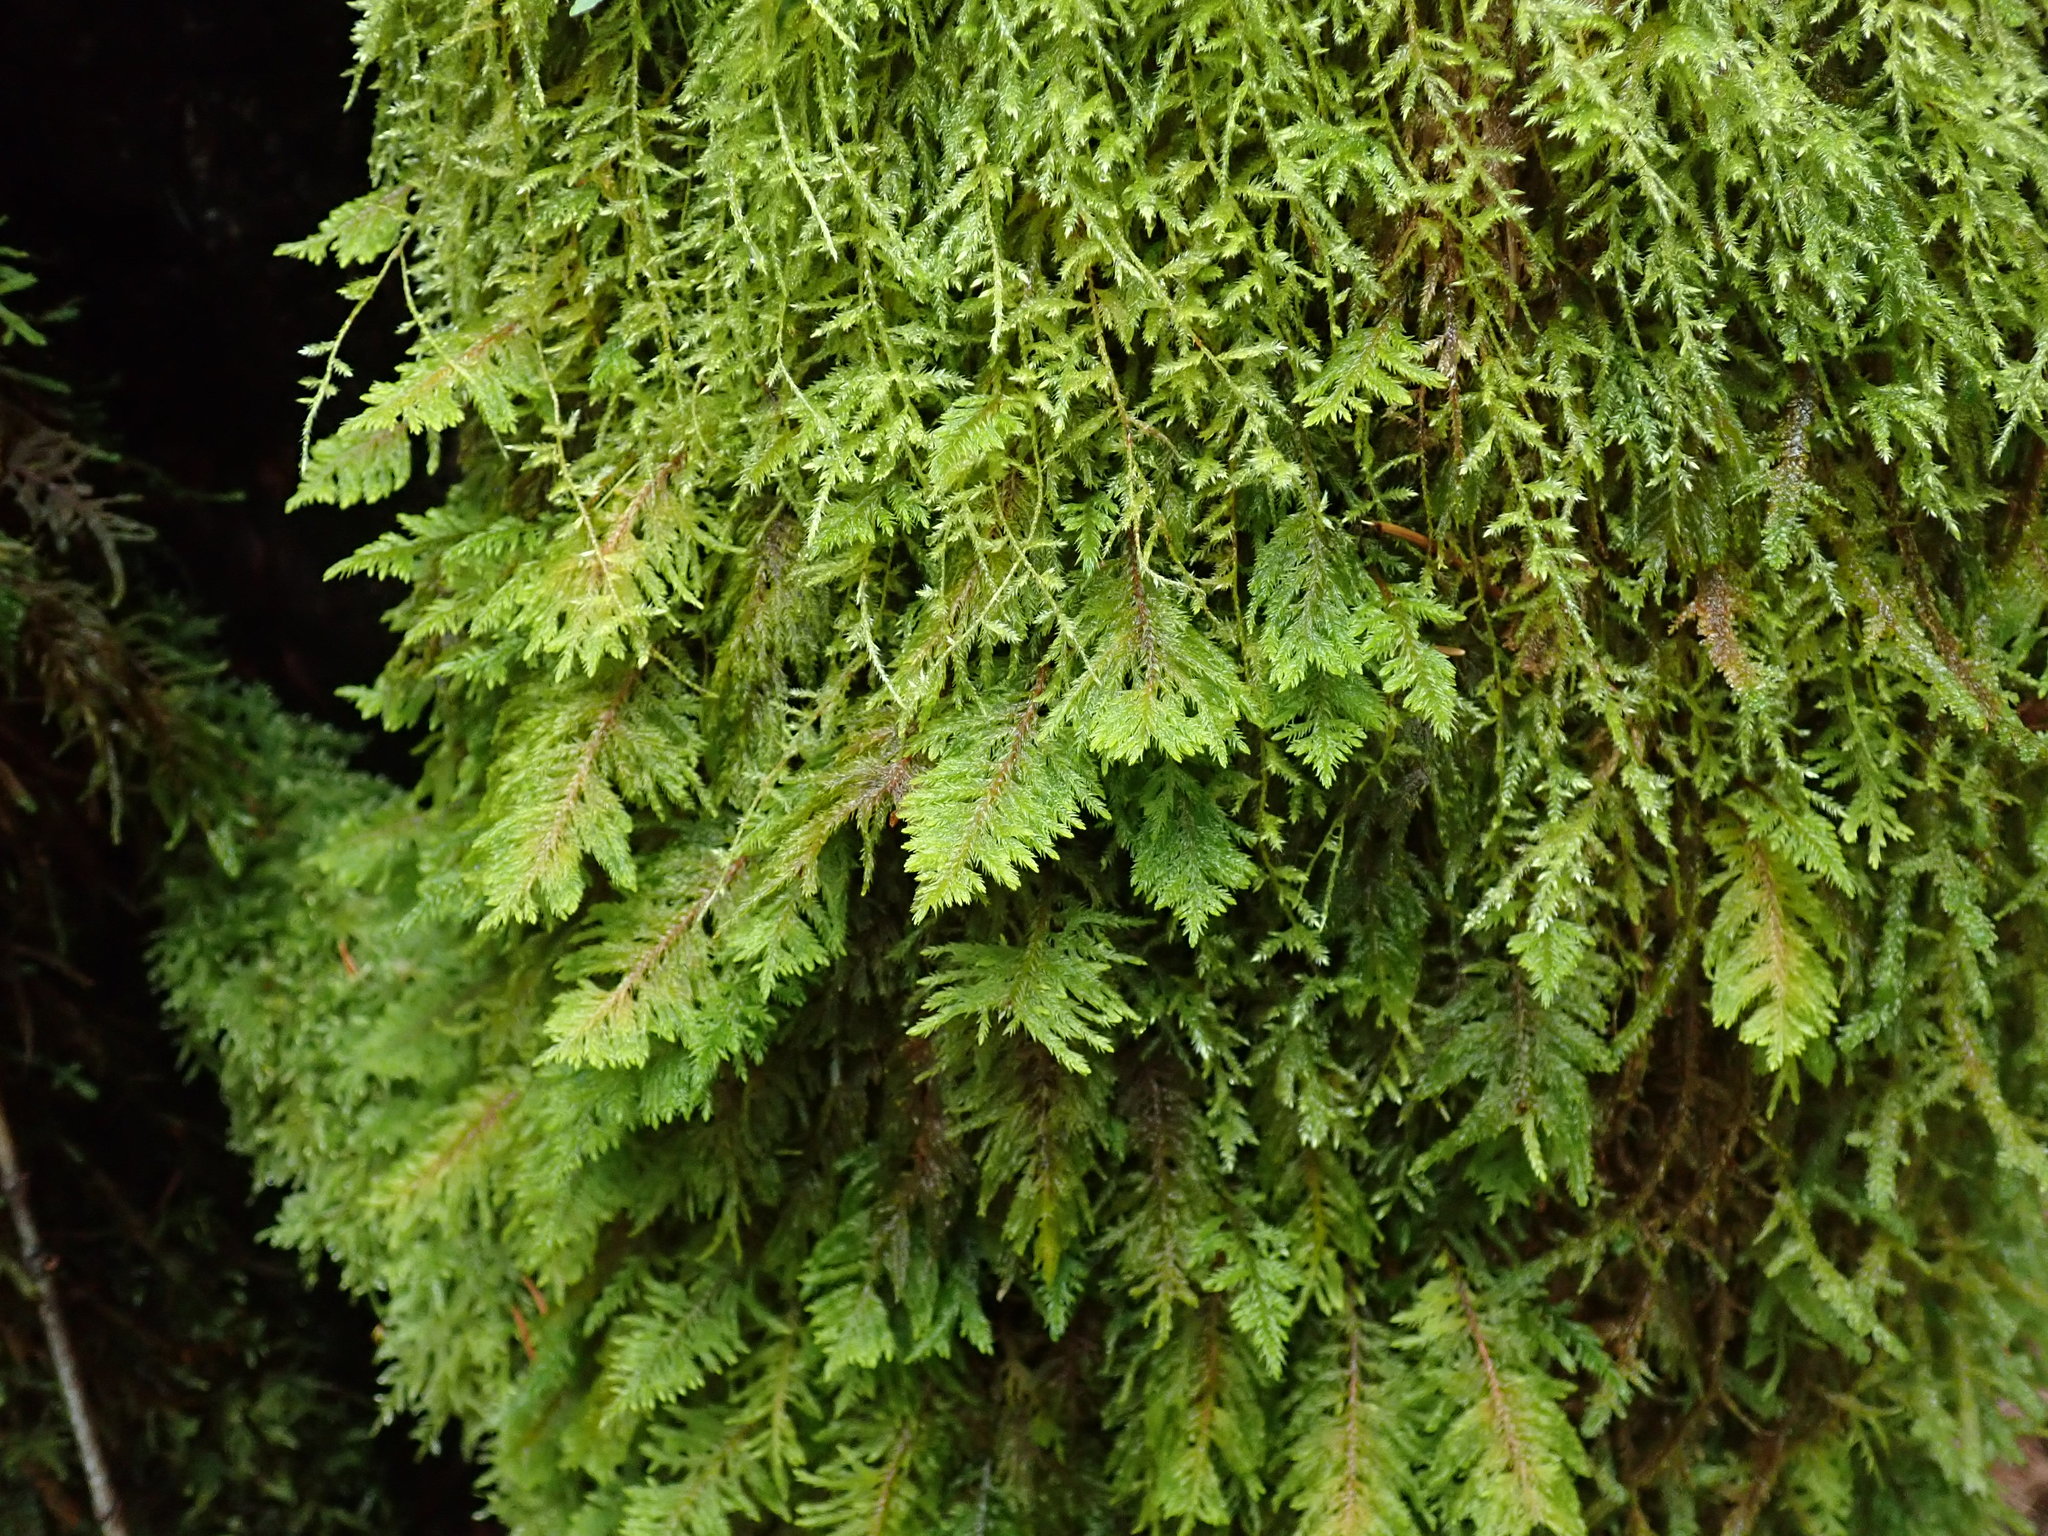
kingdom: Plantae
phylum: Bryophyta
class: Bryopsida
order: Hypnales
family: Cryphaeaceae
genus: Dendroalsia
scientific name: Dendroalsia abietina
